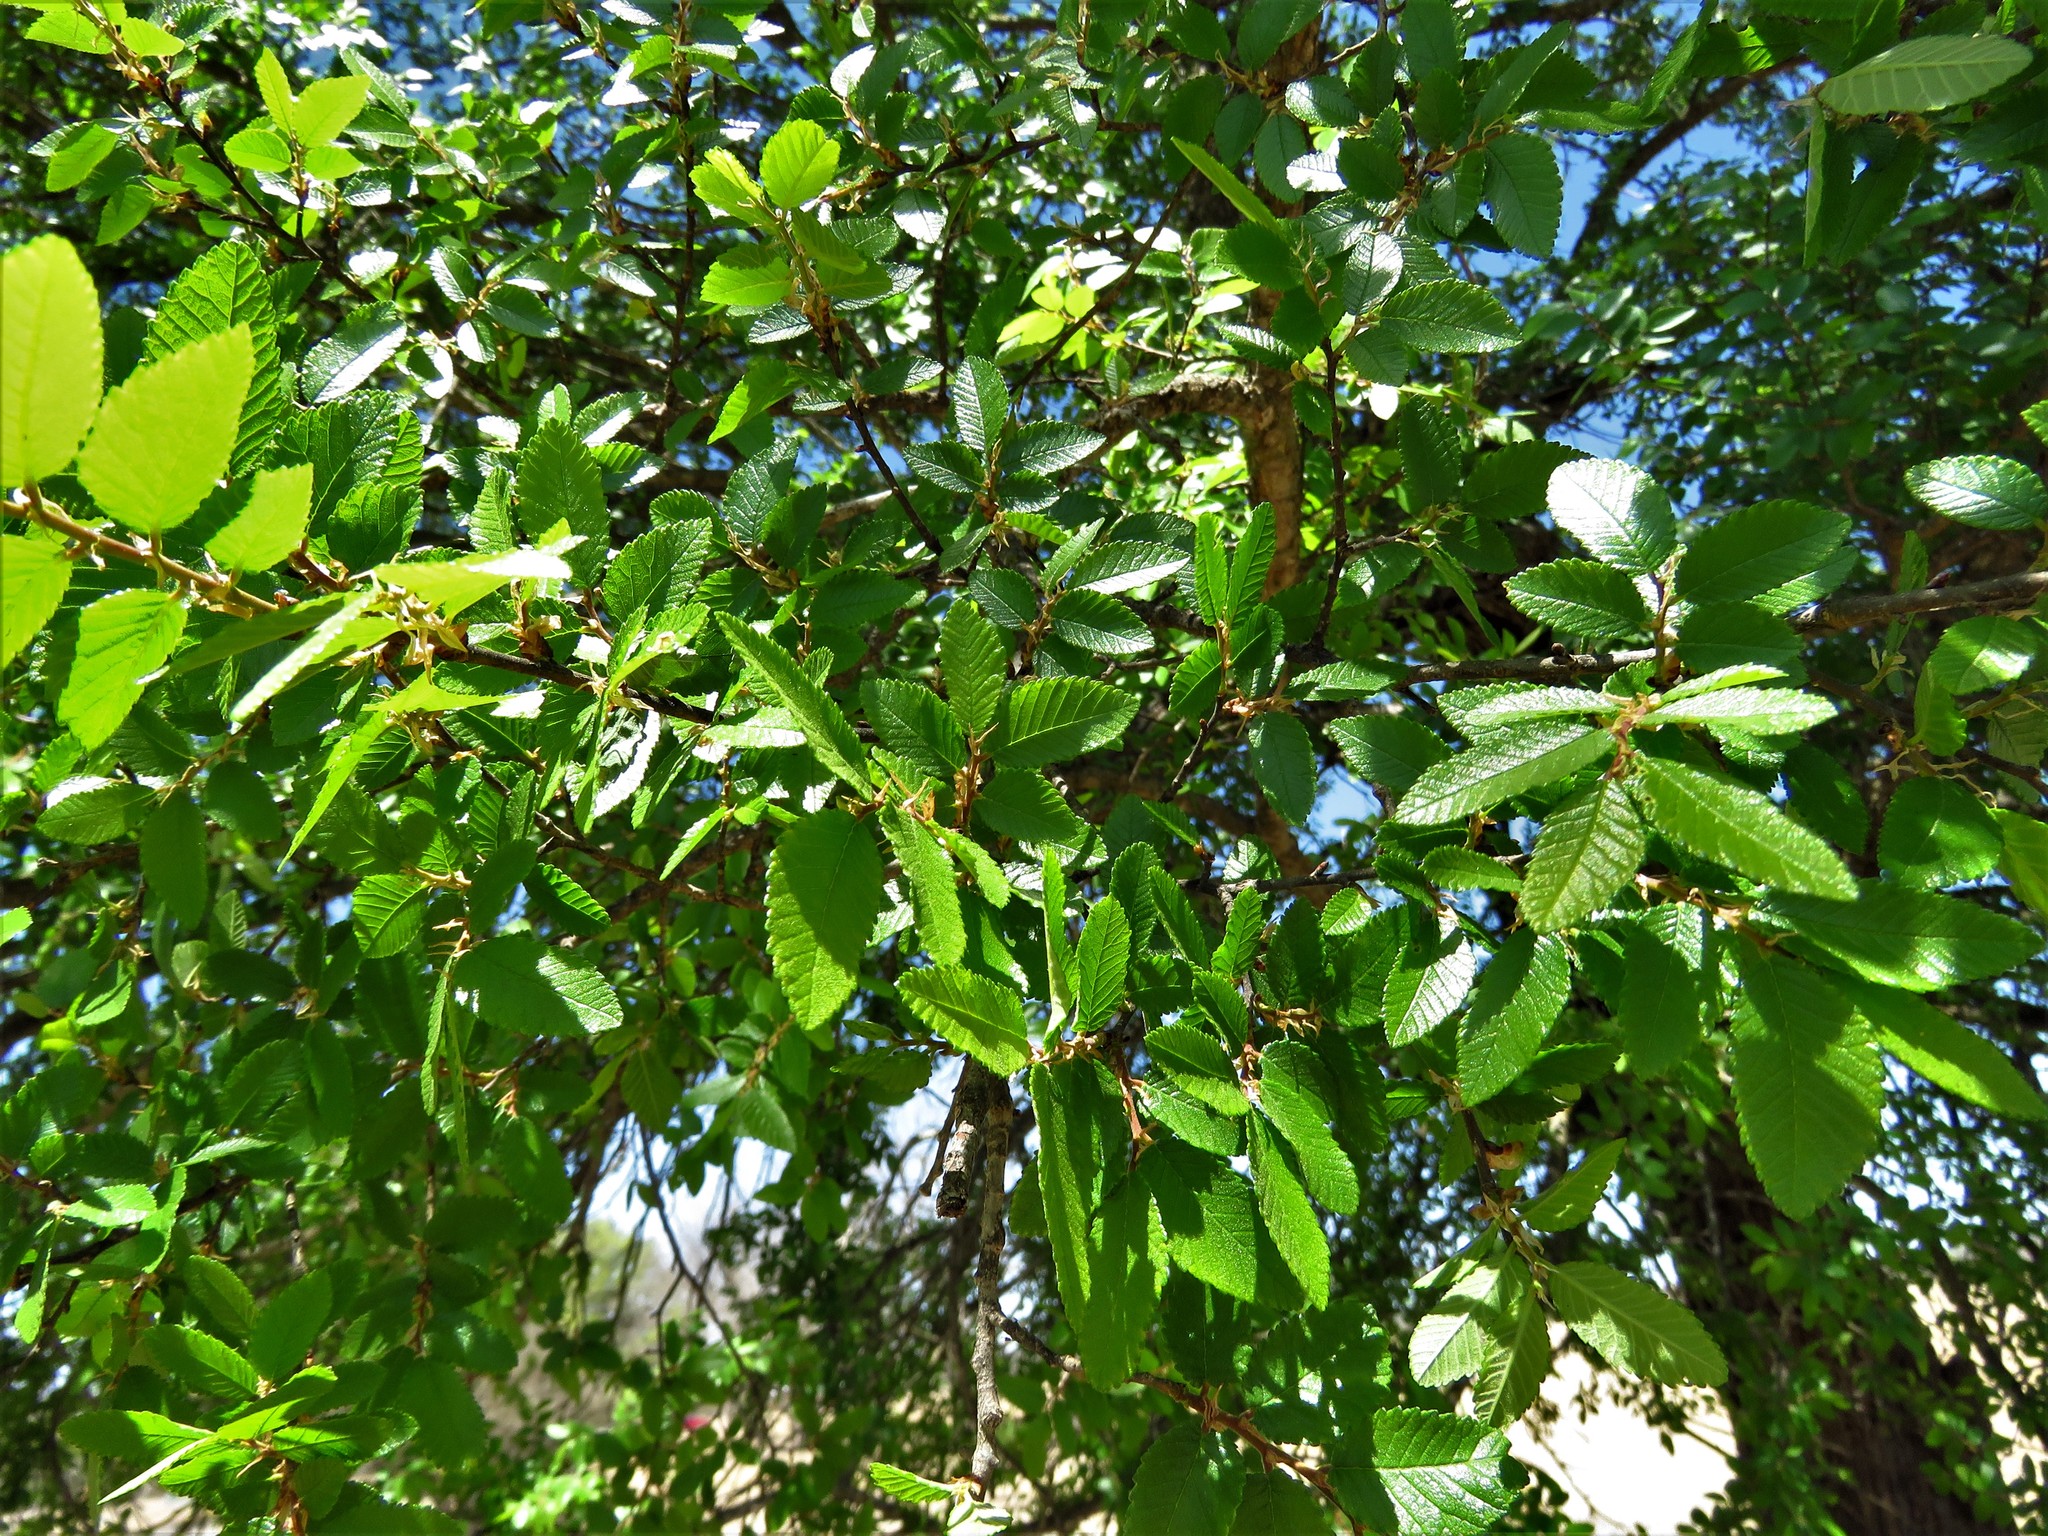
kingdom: Plantae
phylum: Tracheophyta
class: Magnoliopsida
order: Rosales
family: Ulmaceae
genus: Ulmus
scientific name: Ulmus crassifolia
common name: Basket elm
